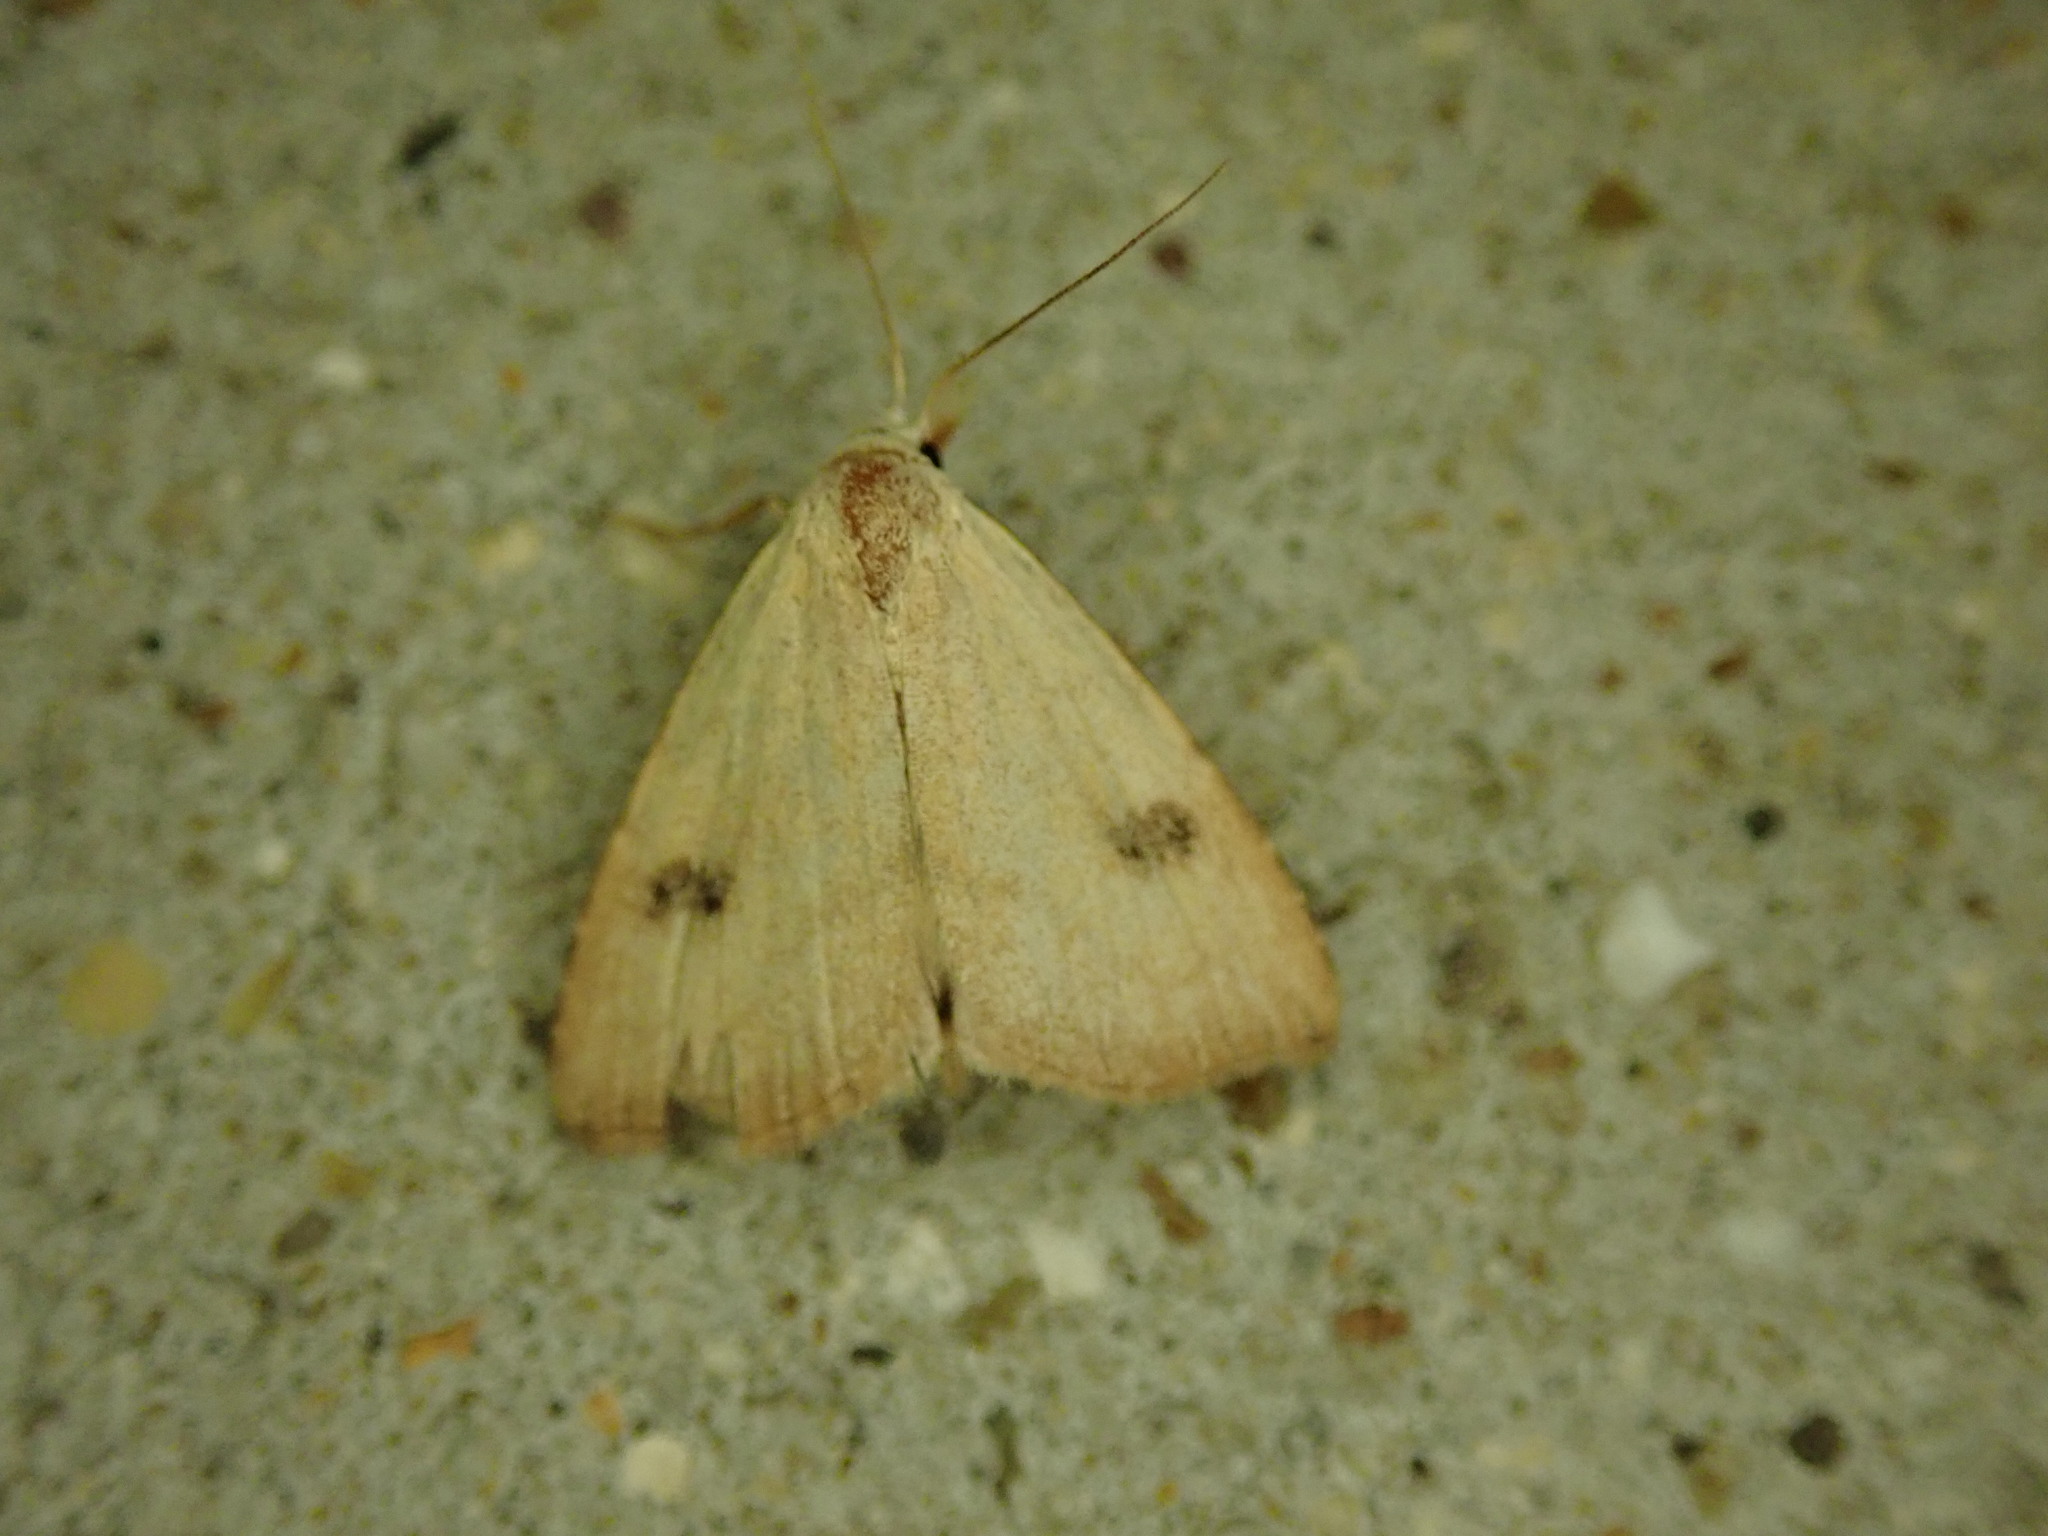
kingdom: Animalia
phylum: Arthropoda
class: Insecta
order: Lepidoptera
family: Erebidae
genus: Rivula
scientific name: Rivula sericealis
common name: Straw dot
